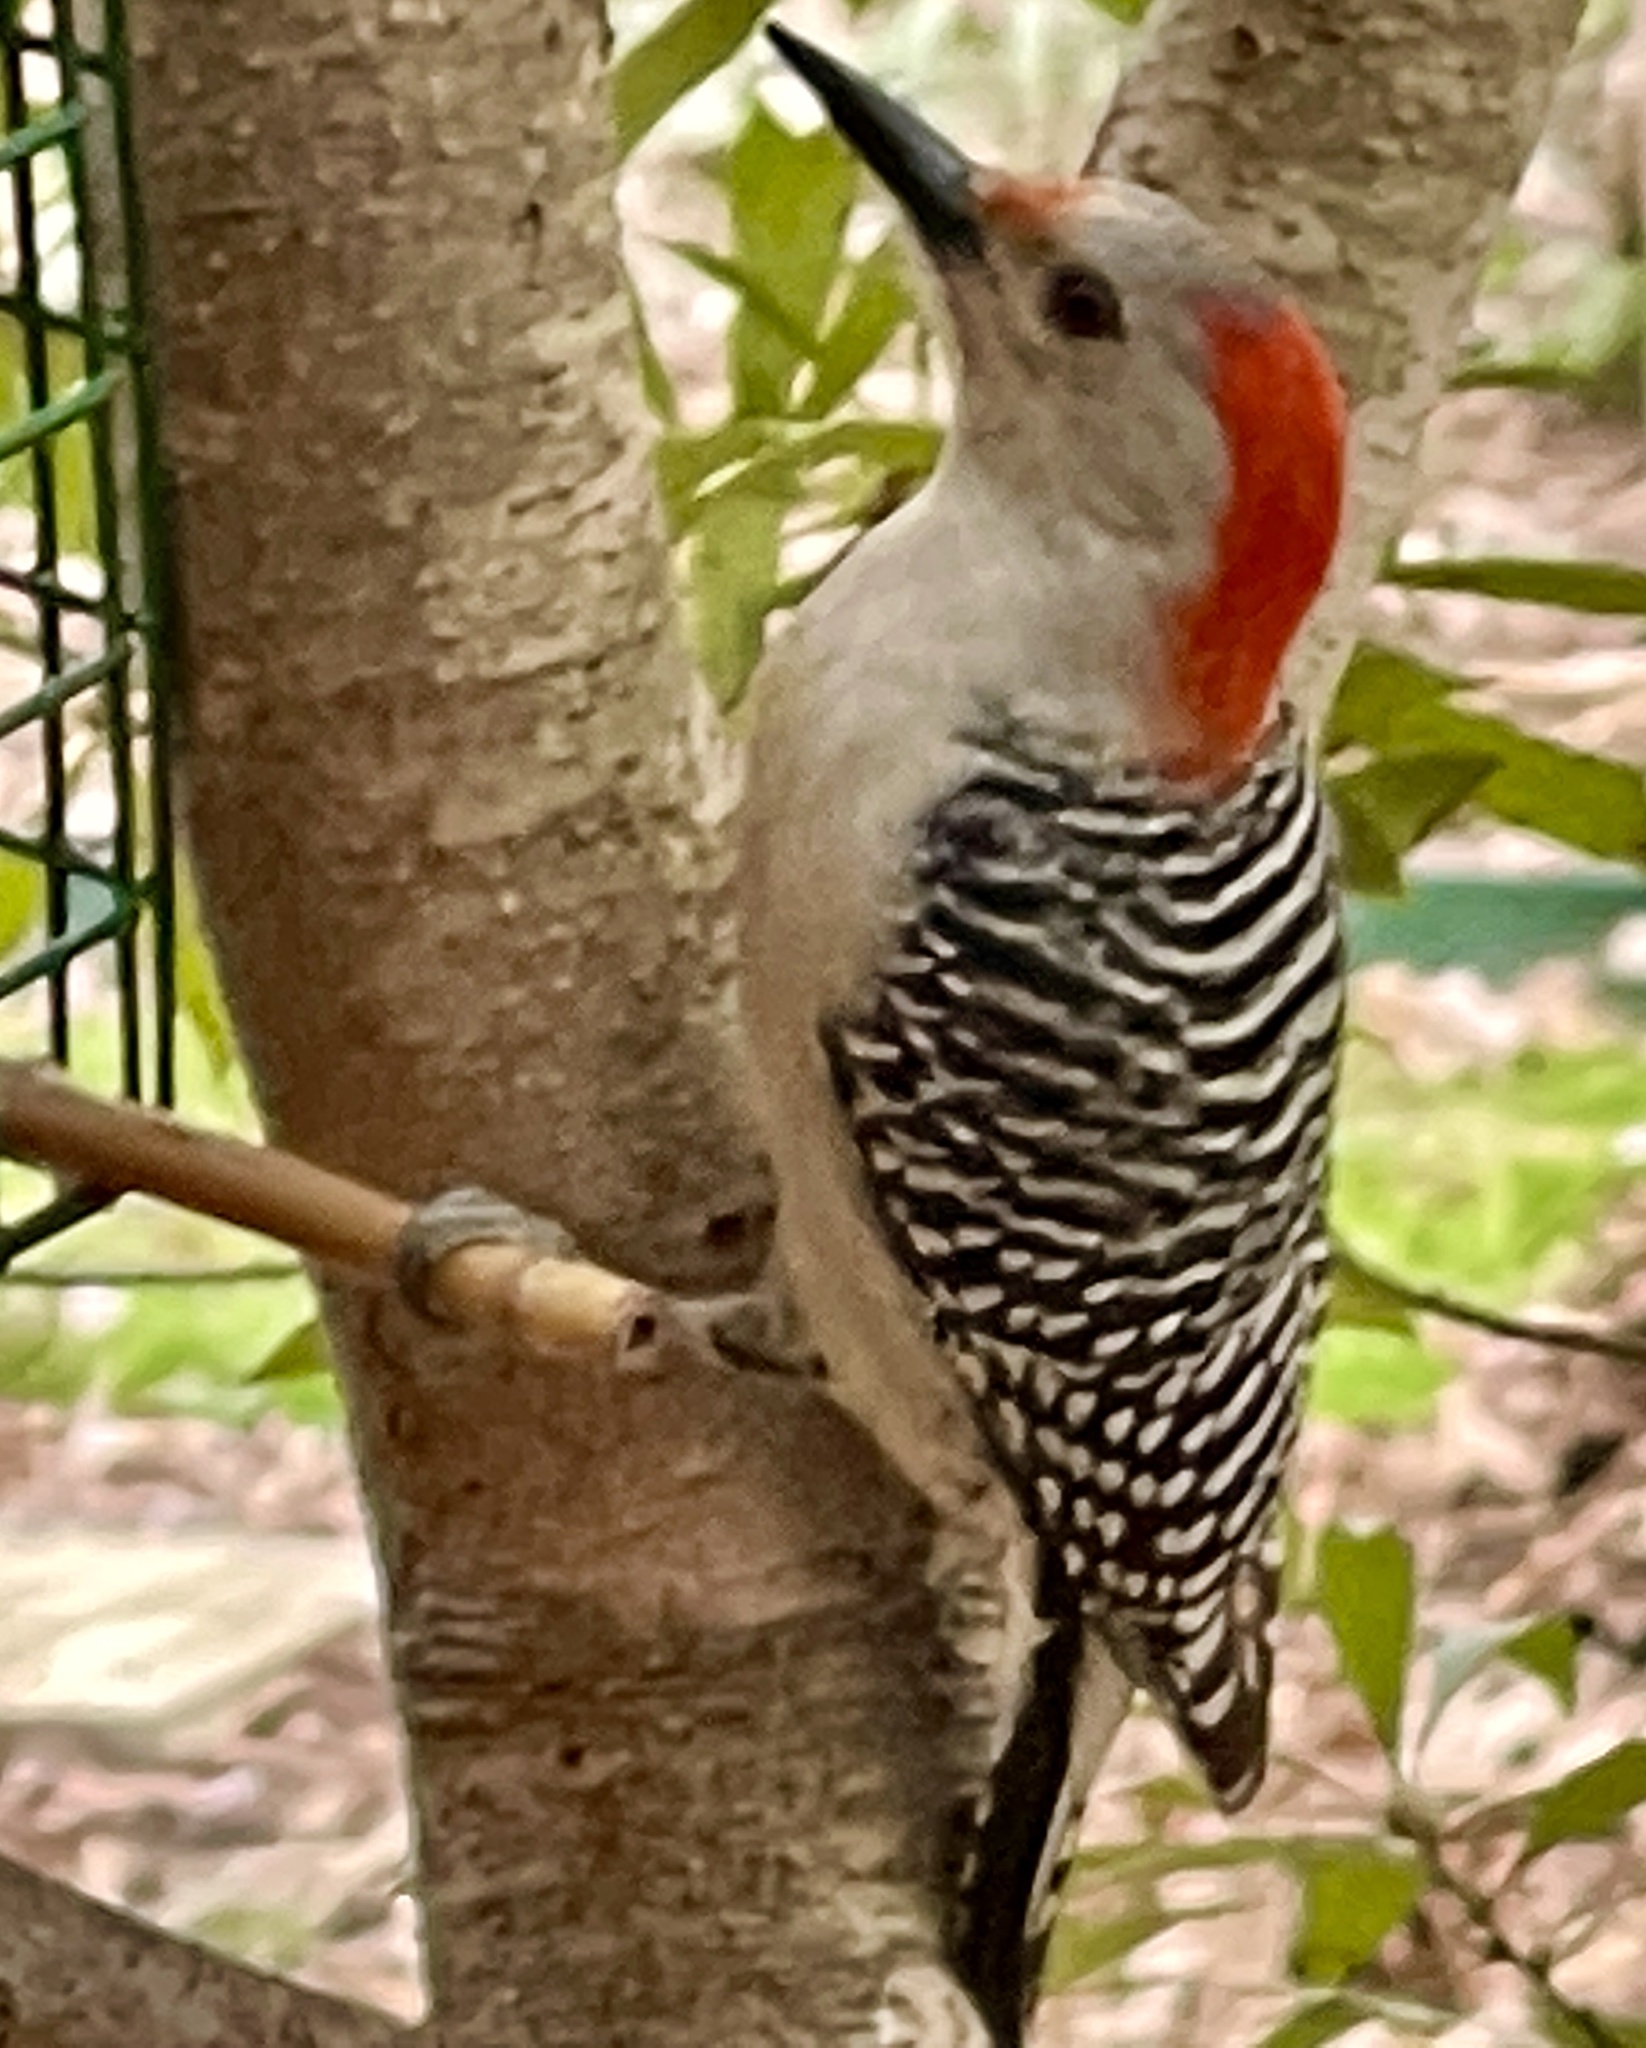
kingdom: Animalia
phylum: Chordata
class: Aves
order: Piciformes
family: Picidae
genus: Melanerpes
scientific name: Melanerpes carolinus
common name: Red-bellied woodpecker
